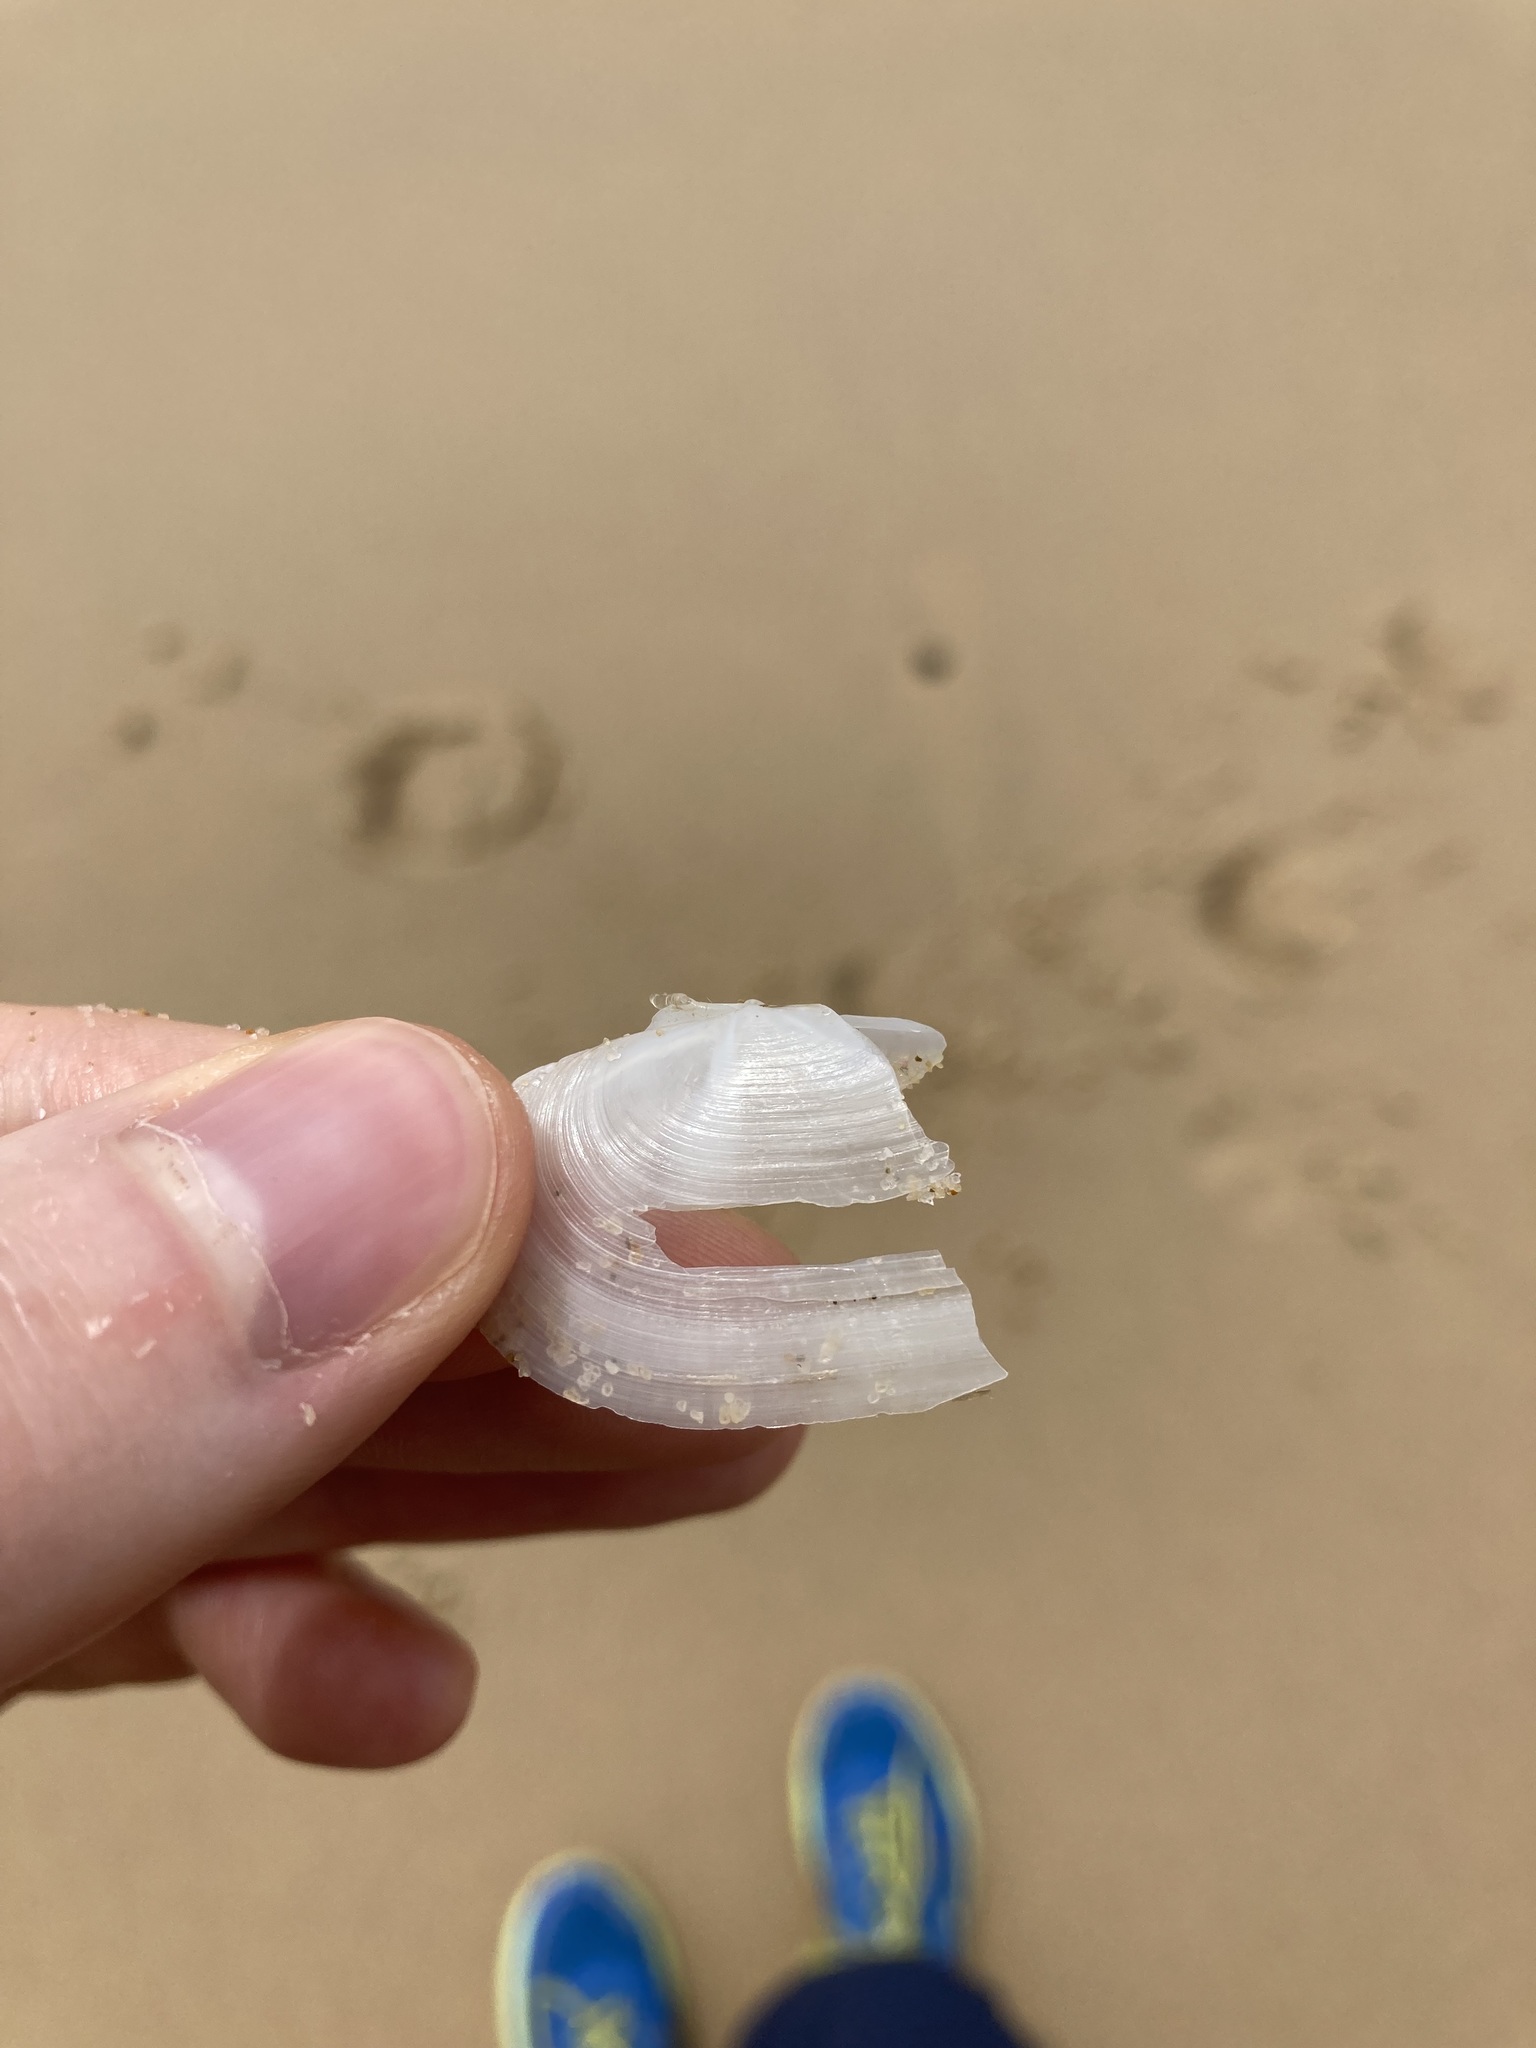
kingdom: Animalia
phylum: Mollusca
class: Bivalvia
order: Venerida
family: Mactridae
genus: Zenatina
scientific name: Zenatina victoriae
